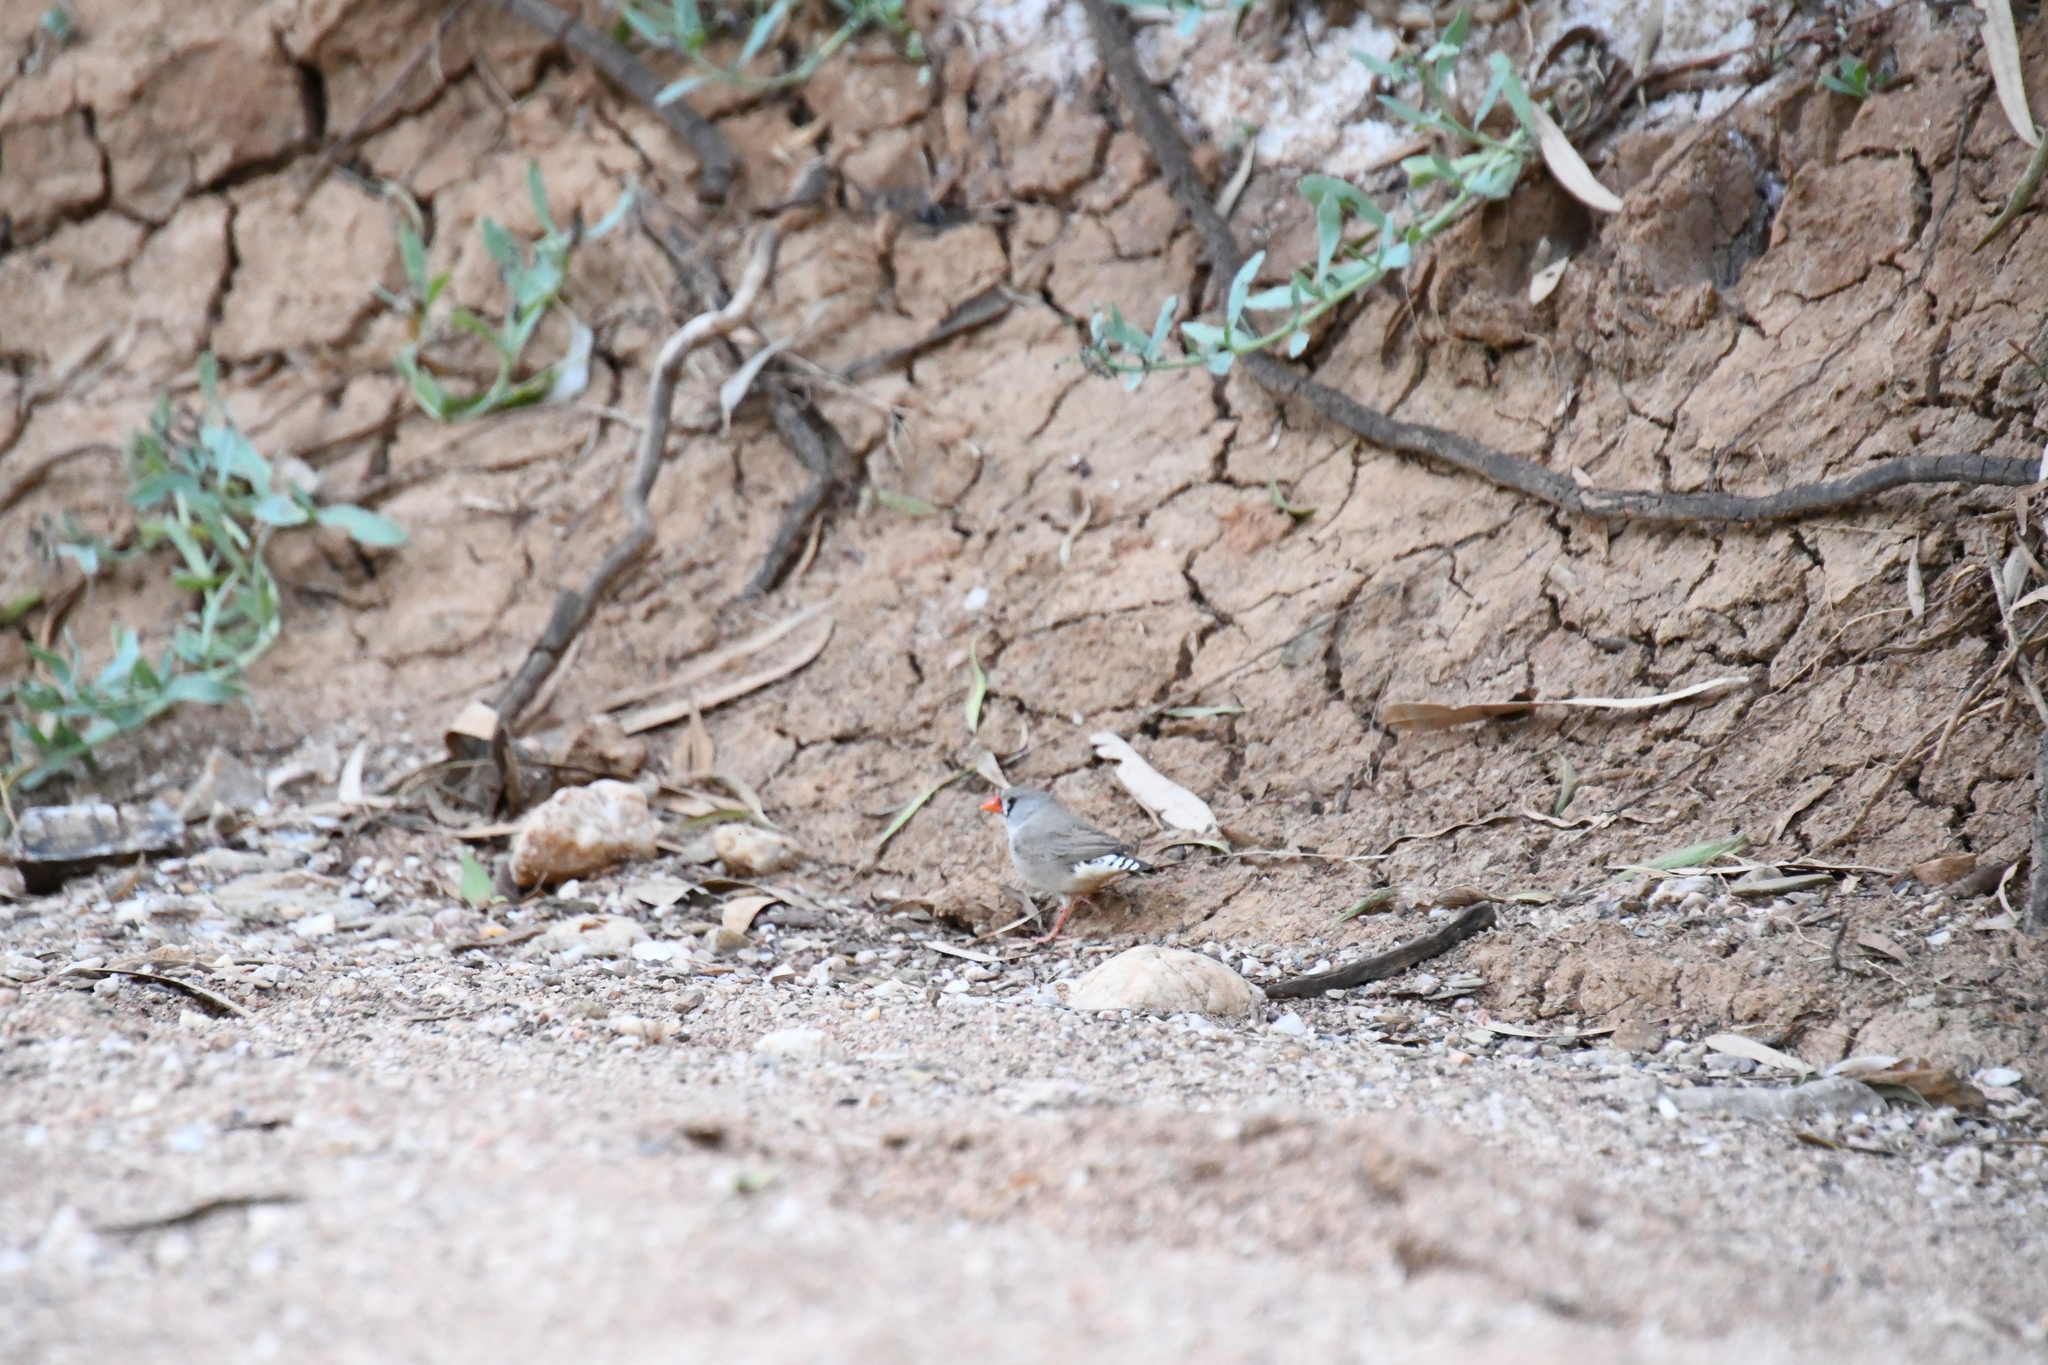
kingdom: Animalia
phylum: Chordata
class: Aves
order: Passeriformes
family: Estrildidae
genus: Taeniopygia
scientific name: Taeniopygia guttata
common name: Zebra finch
